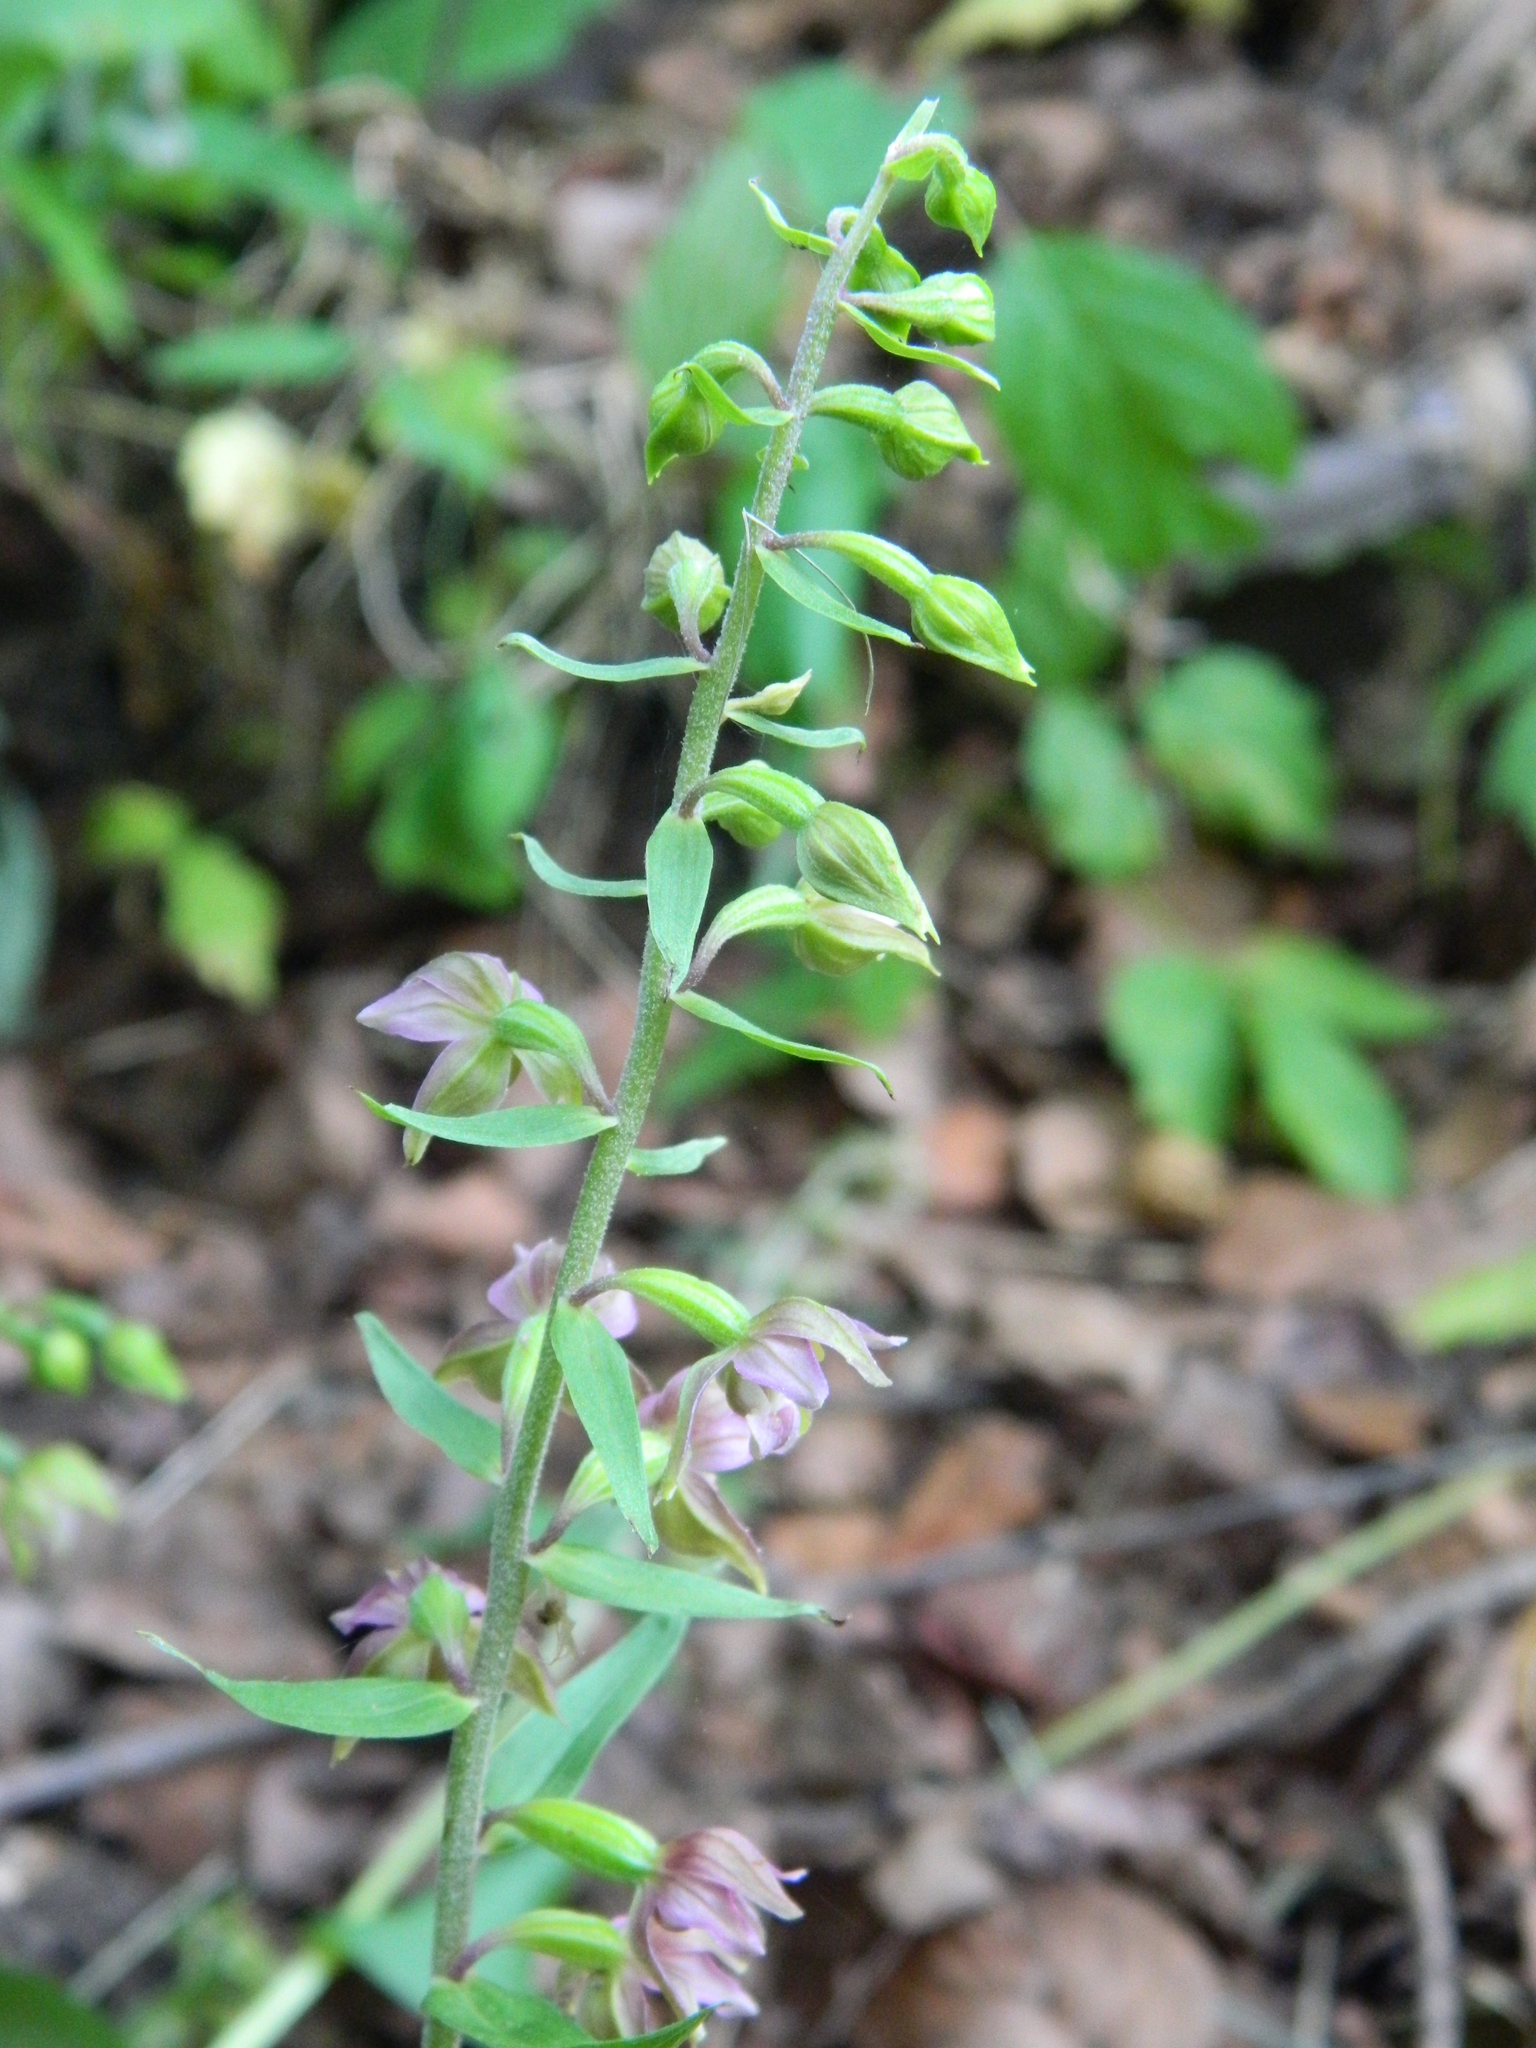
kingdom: Plantae
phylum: Tracheophyta
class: Liliopsida
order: Asparagales
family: Orchidaceae
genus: Epipactis
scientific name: Epipactis helleborine
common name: Broad-leaved helleborine
